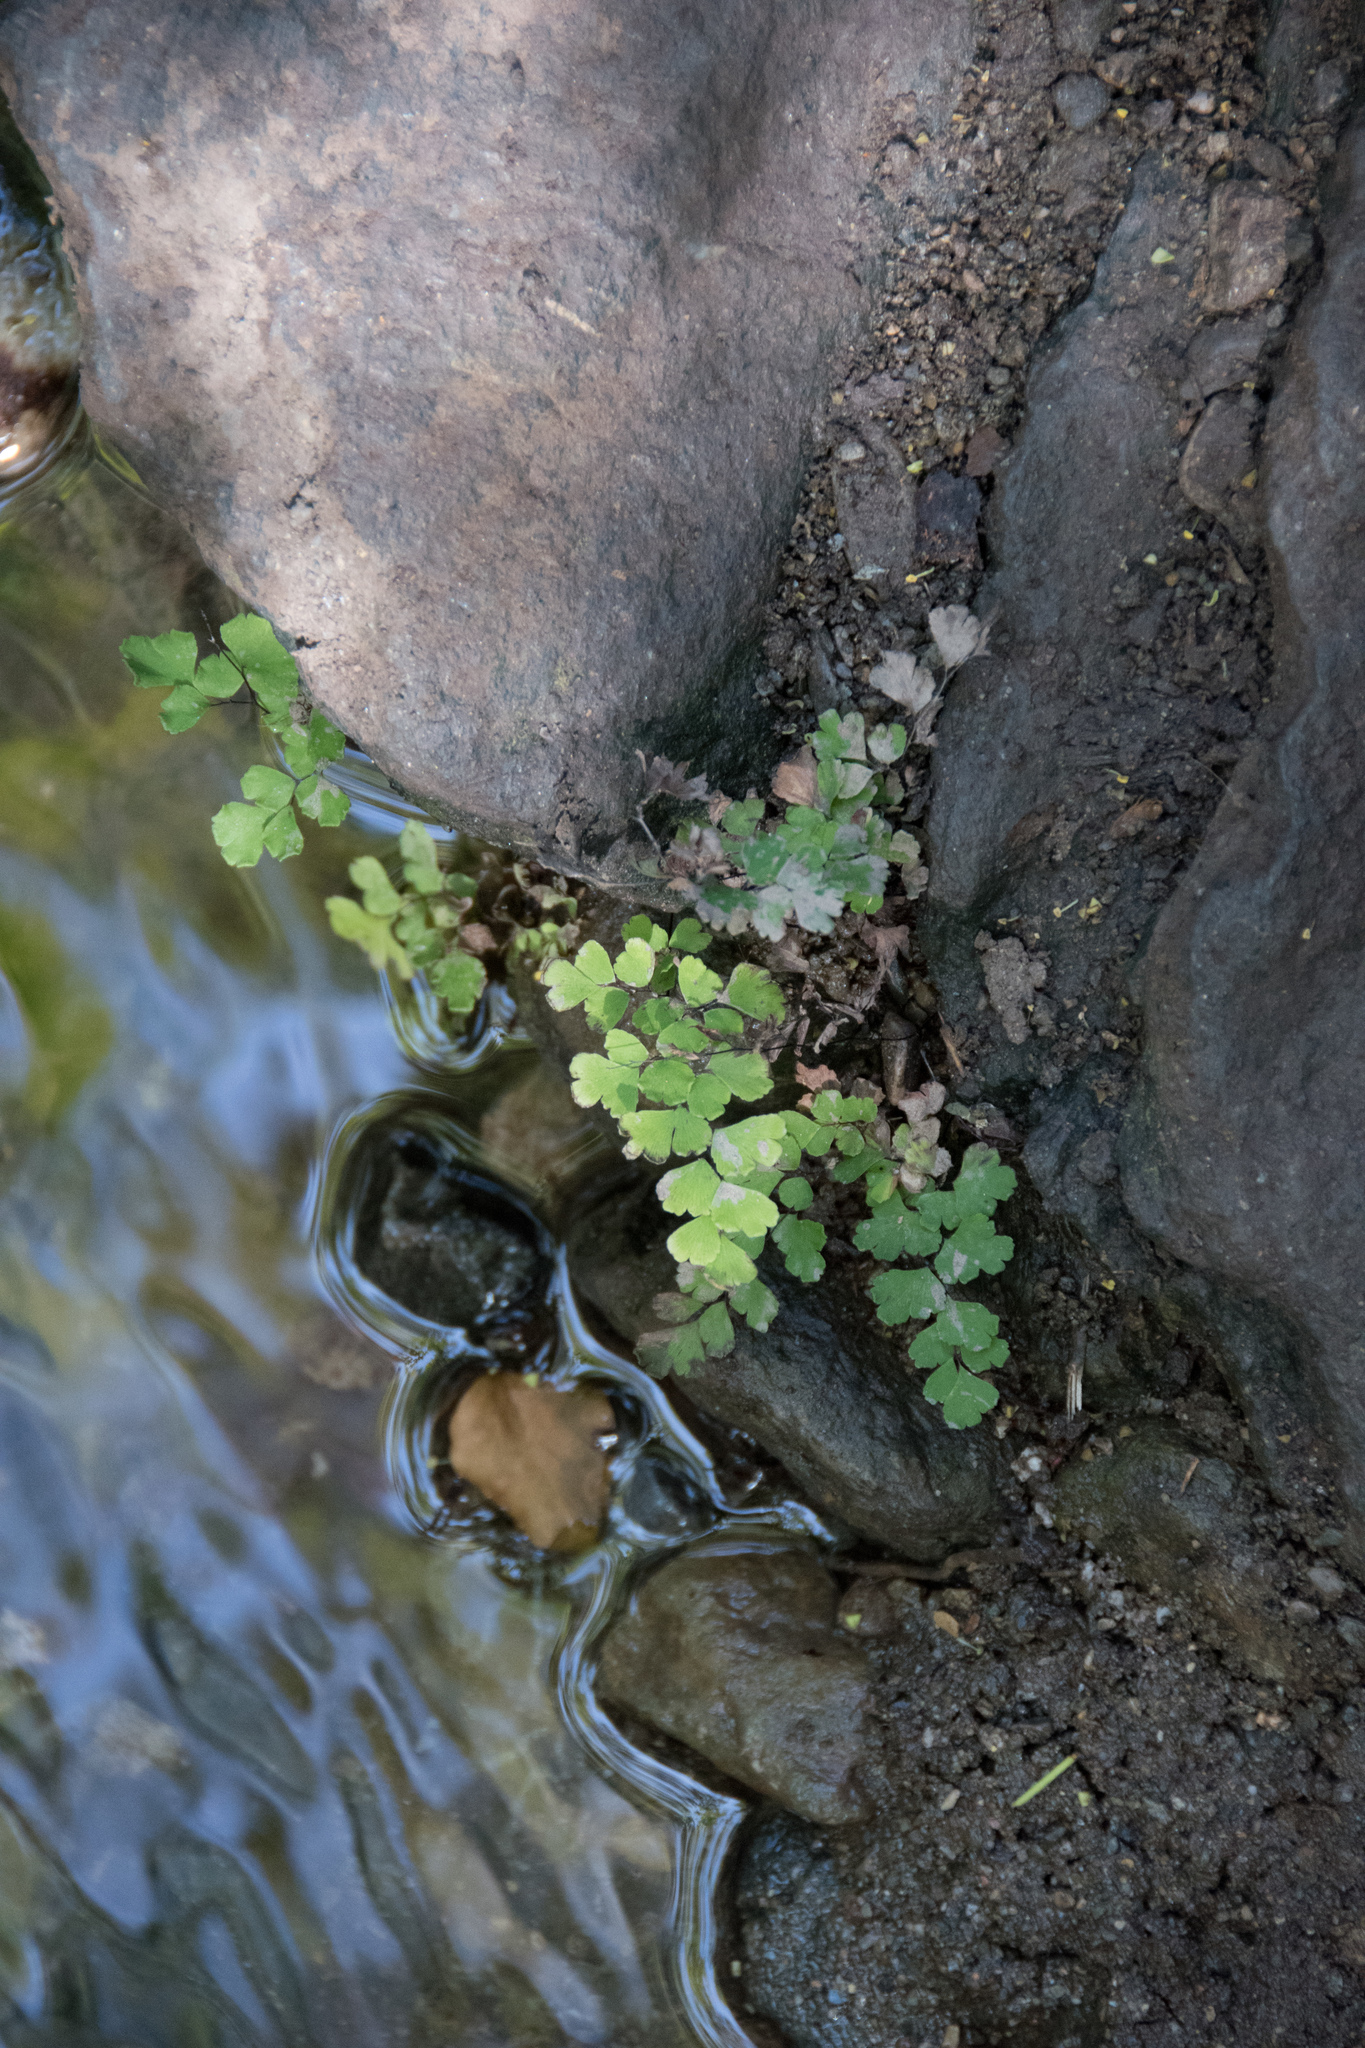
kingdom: Plantae
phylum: Tracheophyta
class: Polypodiopsida
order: Polypodiales
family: Pteridaceae
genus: Adiantum
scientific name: Adiantum capillus-veneris
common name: Maidenhair fern
